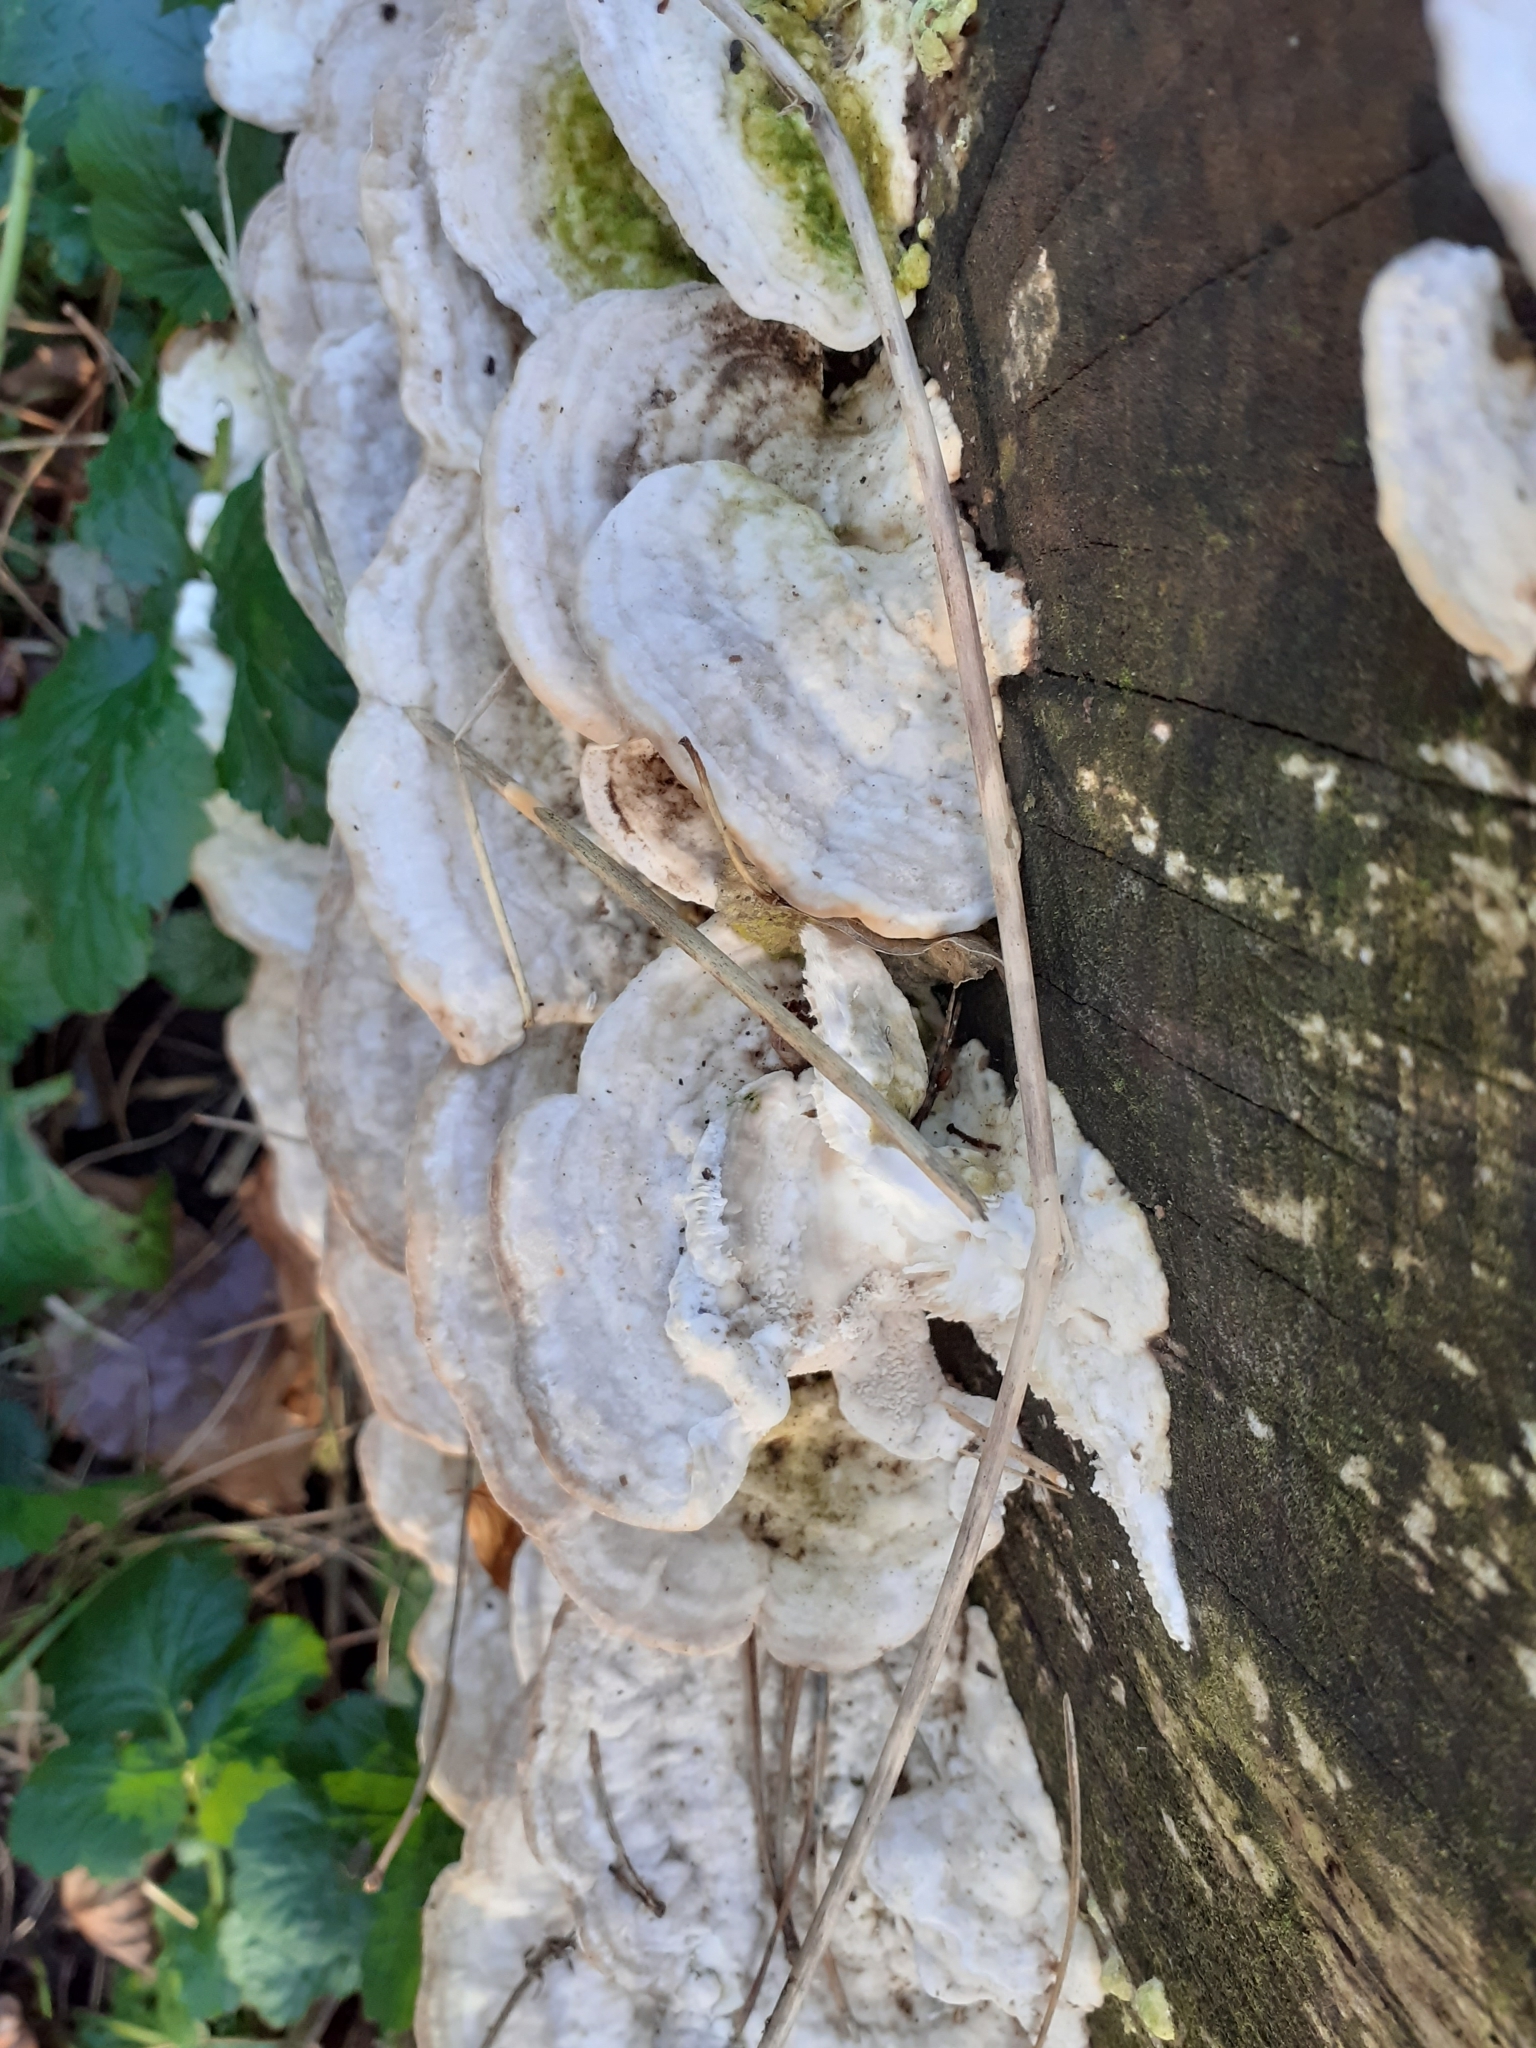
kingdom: Fungi
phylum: Basidiomycota
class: Agaricomycetes
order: Polyporales
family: Polyporaceae
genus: Trametes
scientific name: Trametes gibbosa
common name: Lumpy bracket
